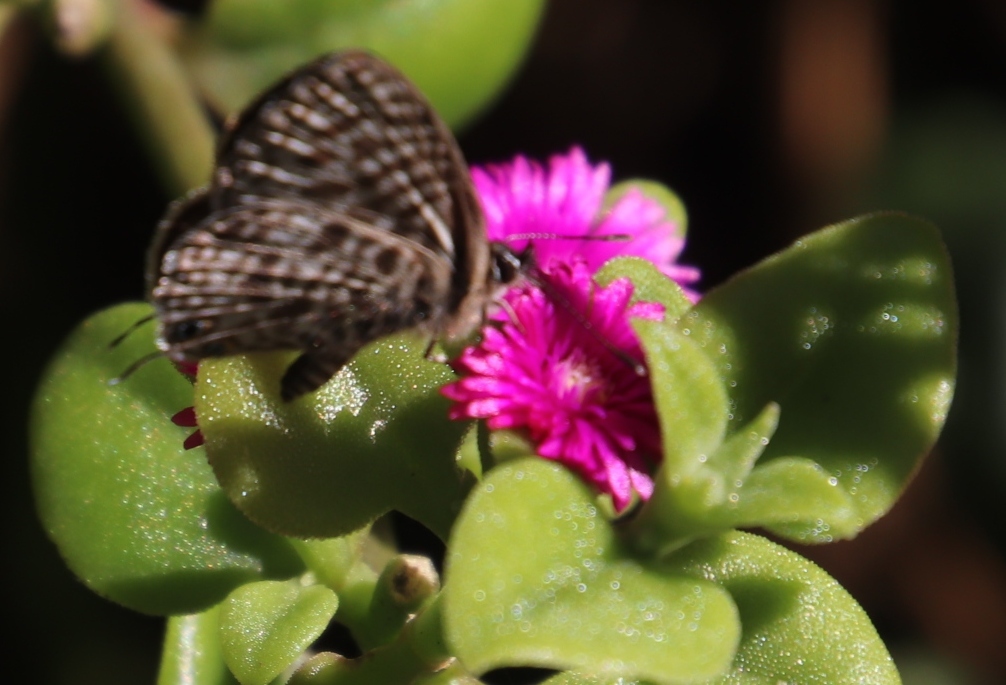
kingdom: Plantae
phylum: Tracheophyta
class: Magnoliopsida
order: Caryophyllales
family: Aizoaceae
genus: Mesembryanthemum
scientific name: Mesembryanthemum cordifolium
